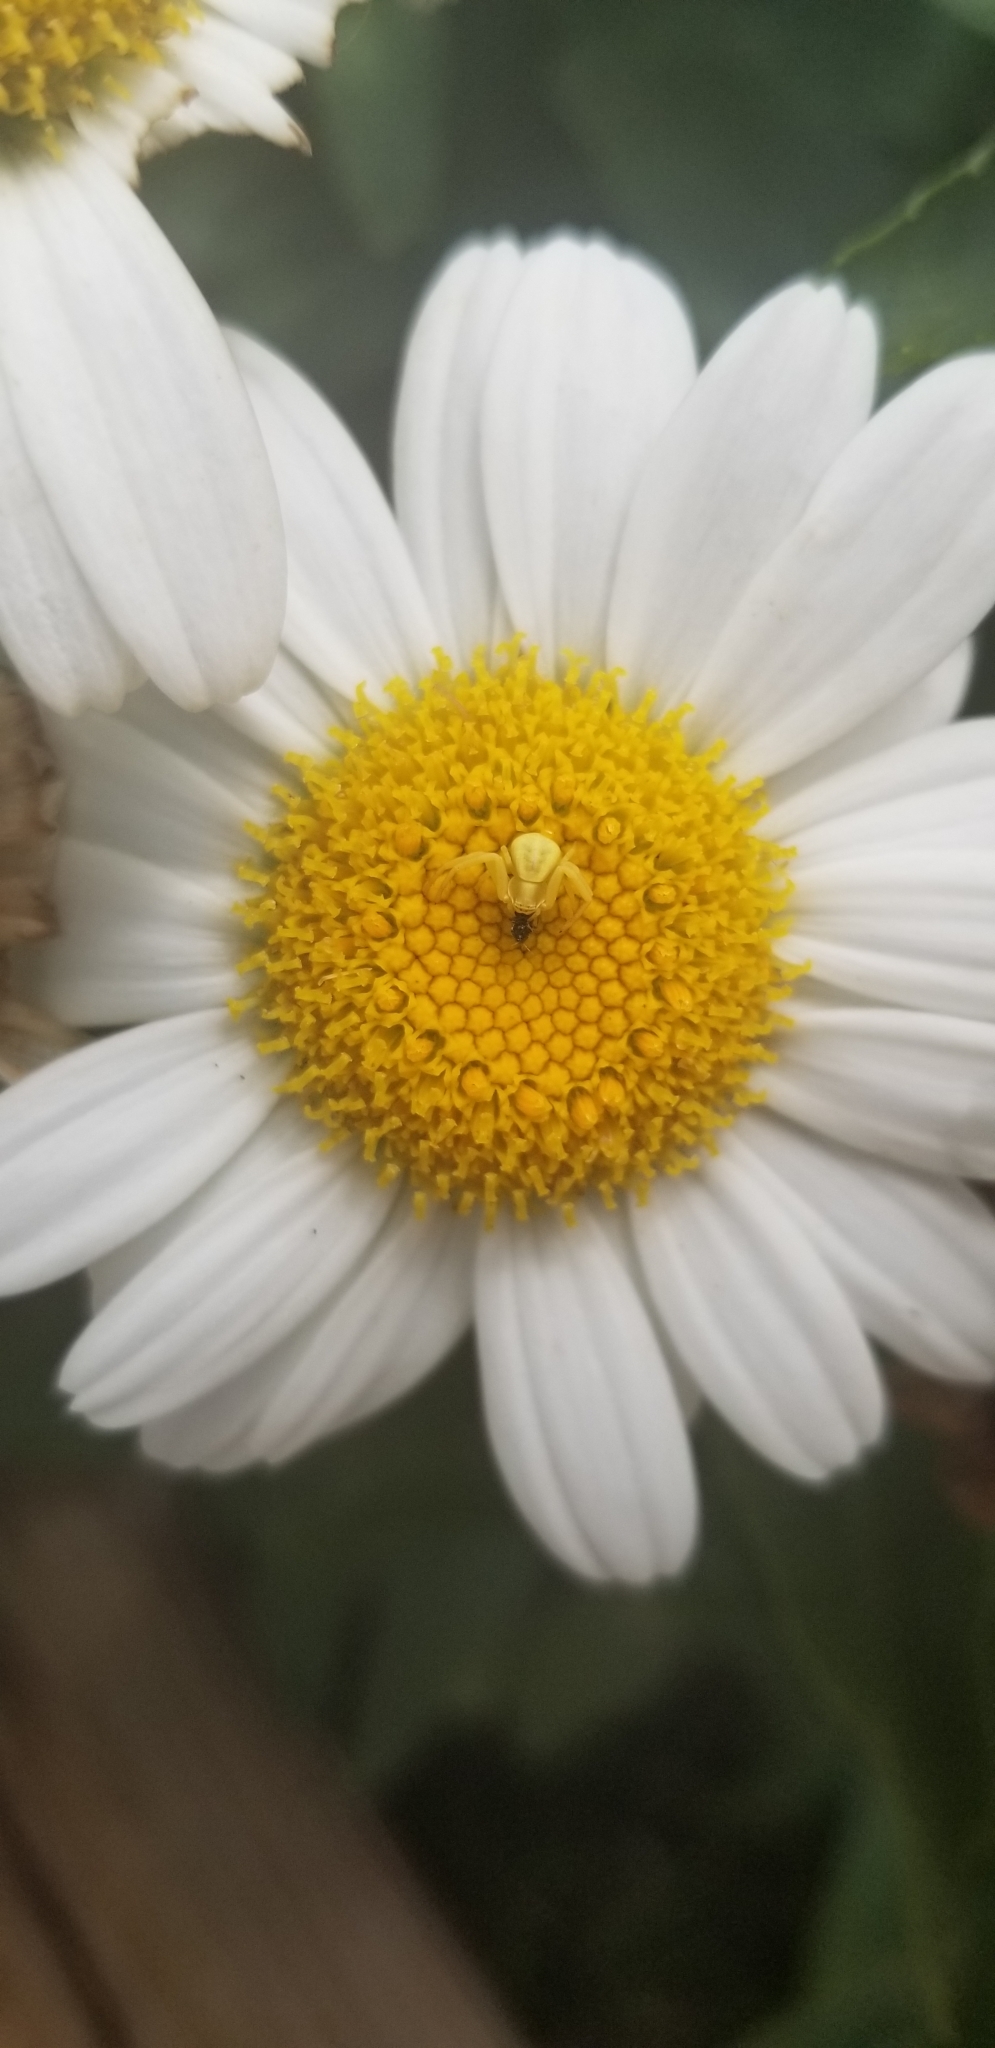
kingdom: Animalia
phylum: Arthropoda
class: Arachnida
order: Araneae
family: Thomisidae
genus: Misumenoides
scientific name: Misumenoides formosipes
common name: White-banded crab spider
